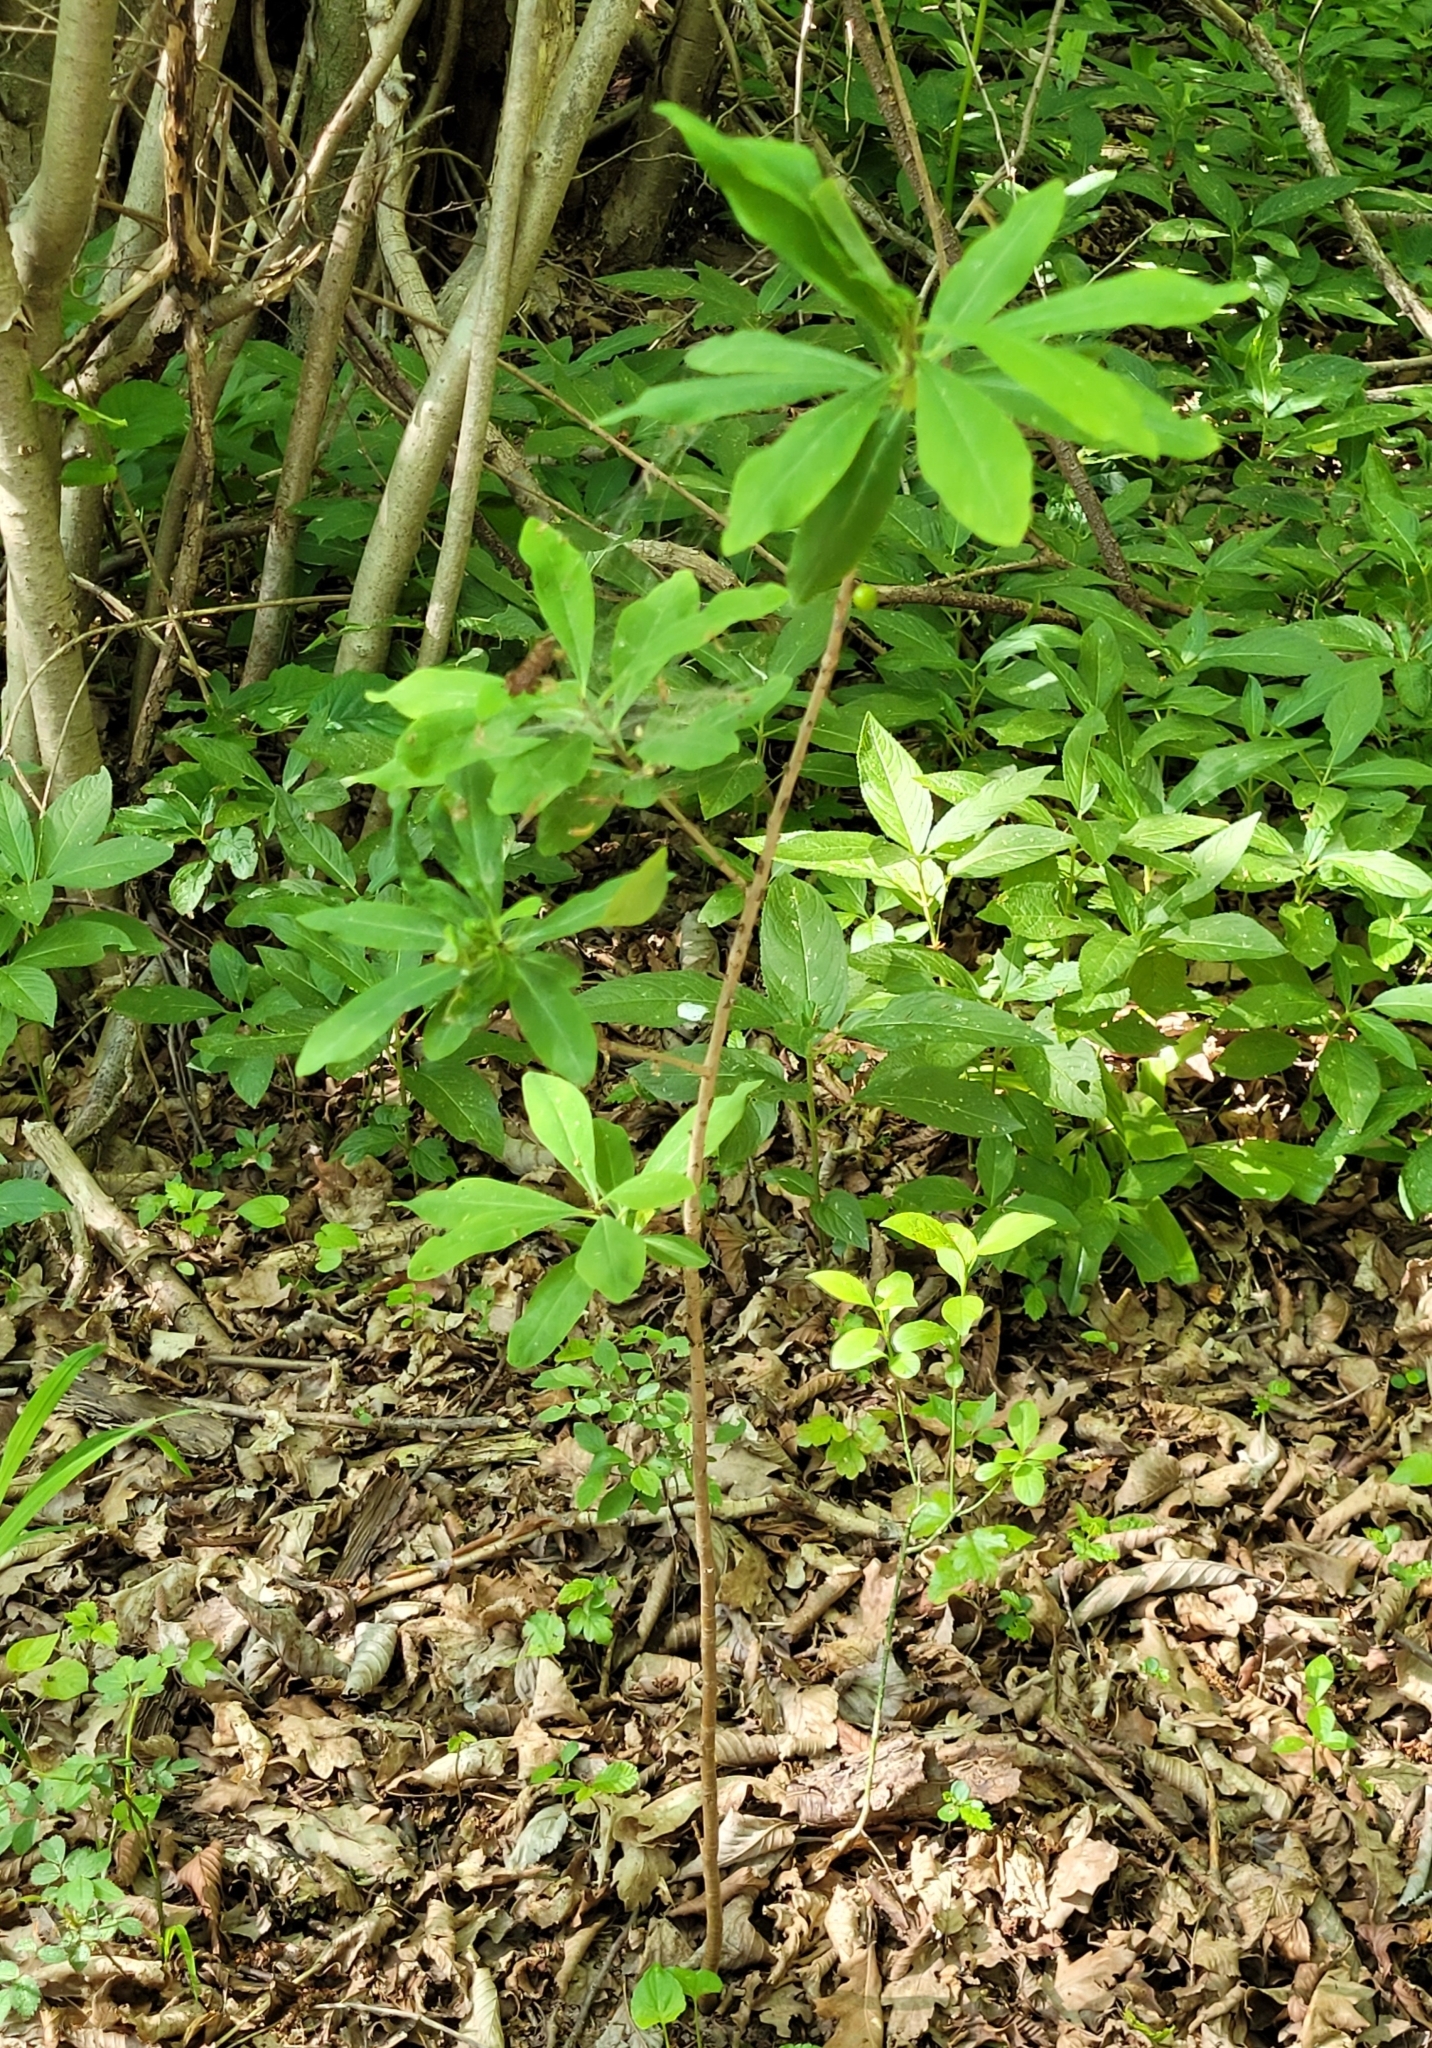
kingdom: Plantae
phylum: Tracheophyta
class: Magnoliopsida
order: Malvales
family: Thymelaeaceae
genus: Daphne
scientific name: Daphne mezereum
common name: Mezereon
